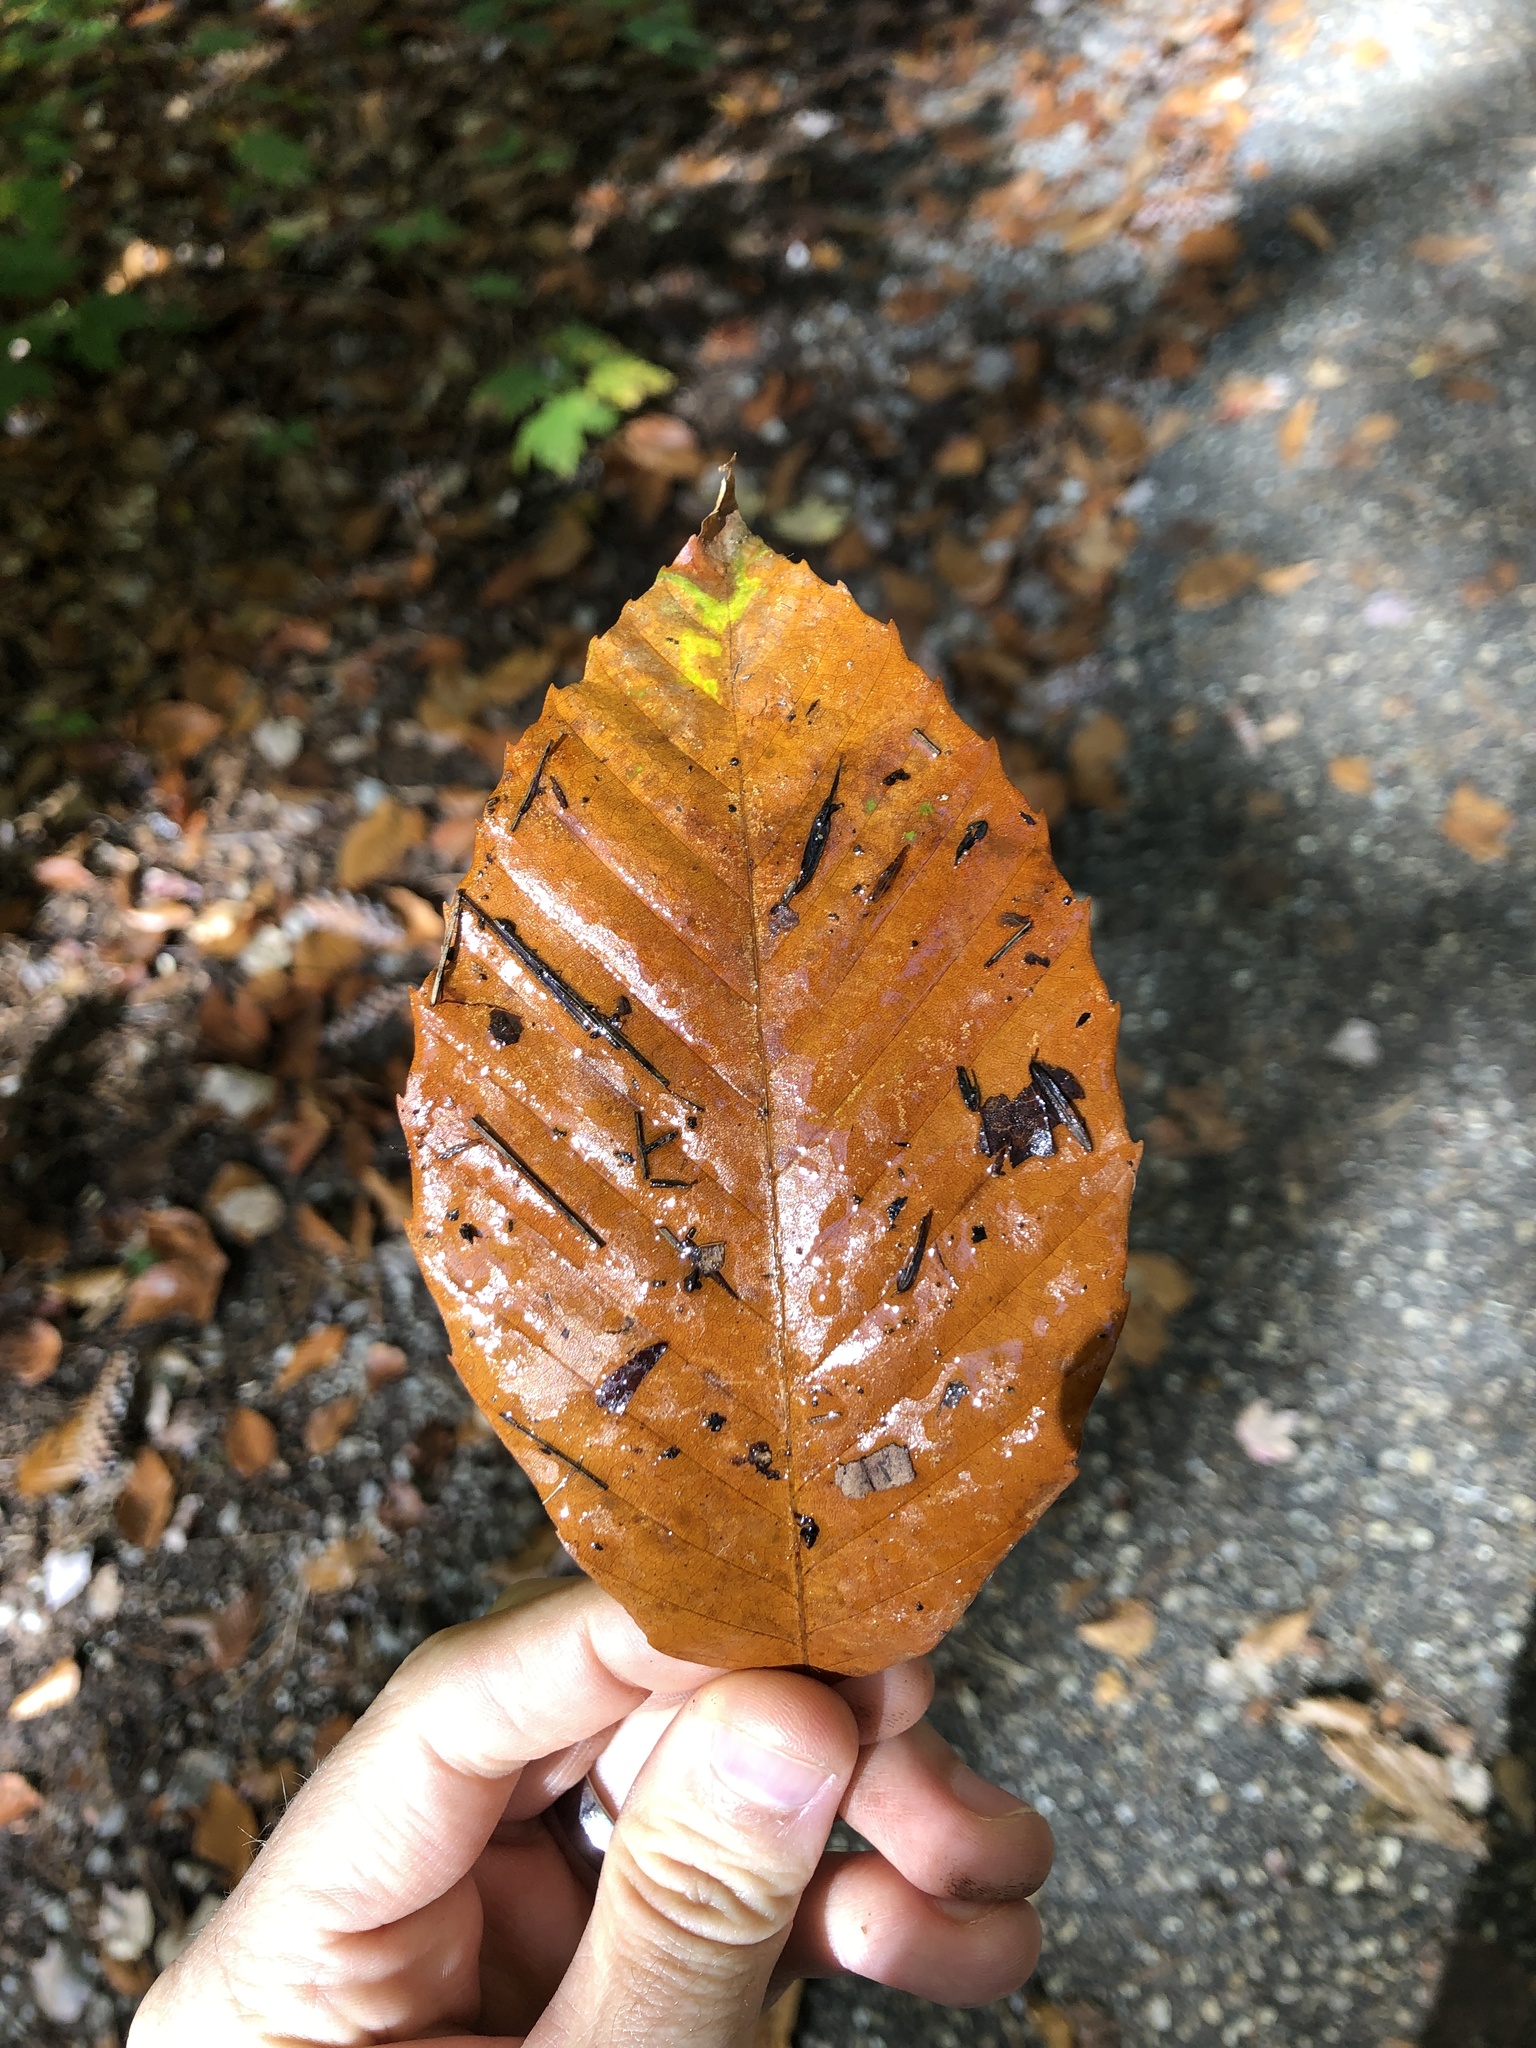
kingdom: Plantae
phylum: Tracheophyta
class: Magnoliopsida
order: Fagales
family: Fagaceae
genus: Fagus
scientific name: Fagus grandifolia
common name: American beech
